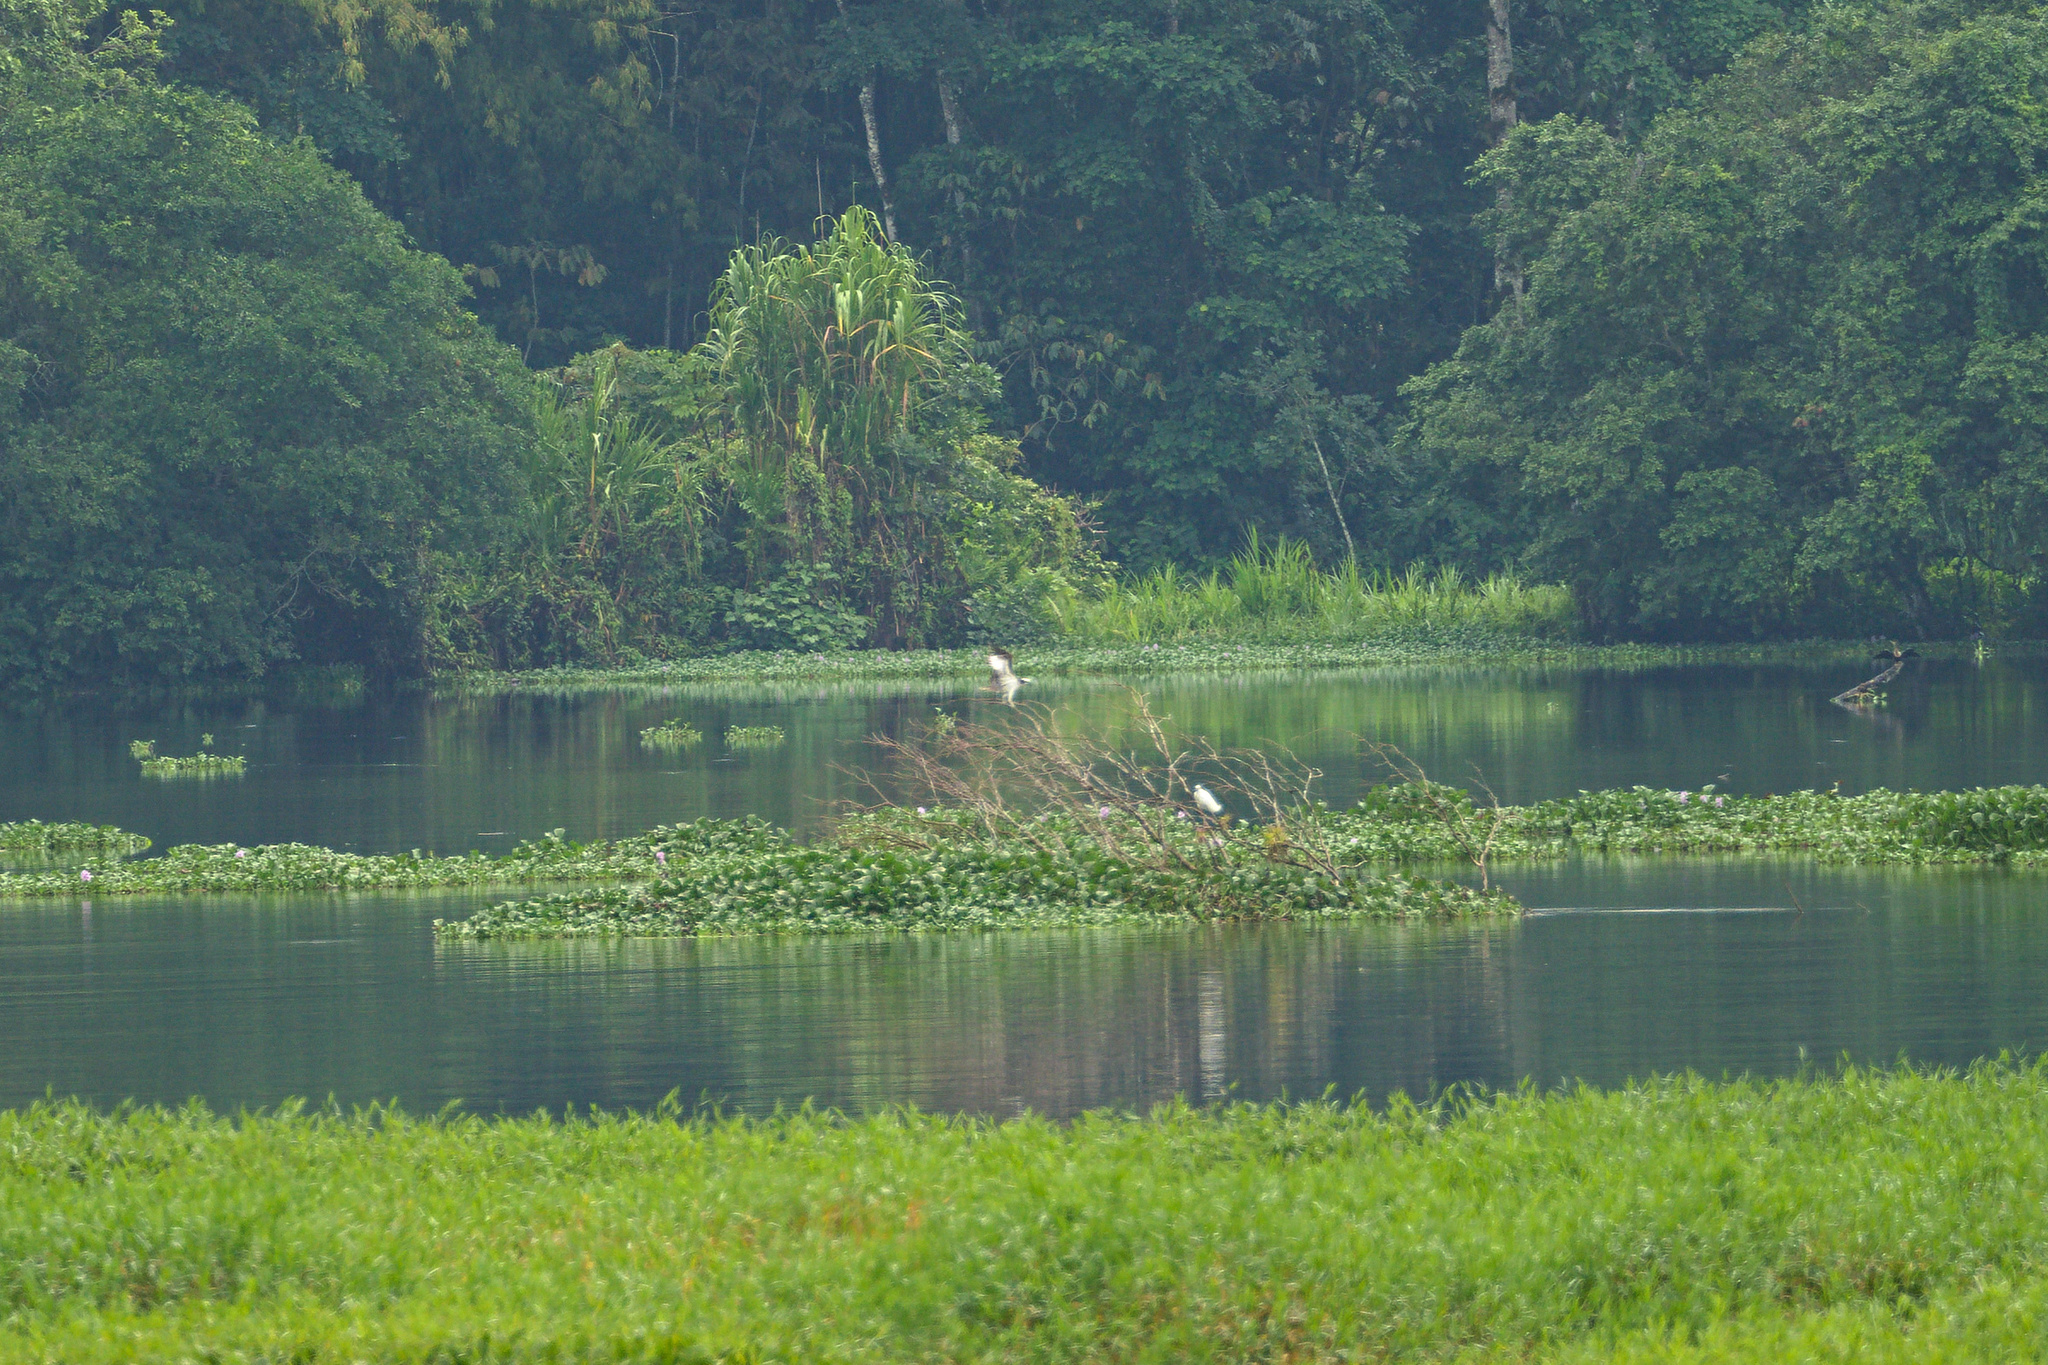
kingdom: Animalia
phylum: Chordata
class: Aves
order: Accipitriformes
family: Pandionidae
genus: Pandion
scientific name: Pandion haliaetus
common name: Osprey
